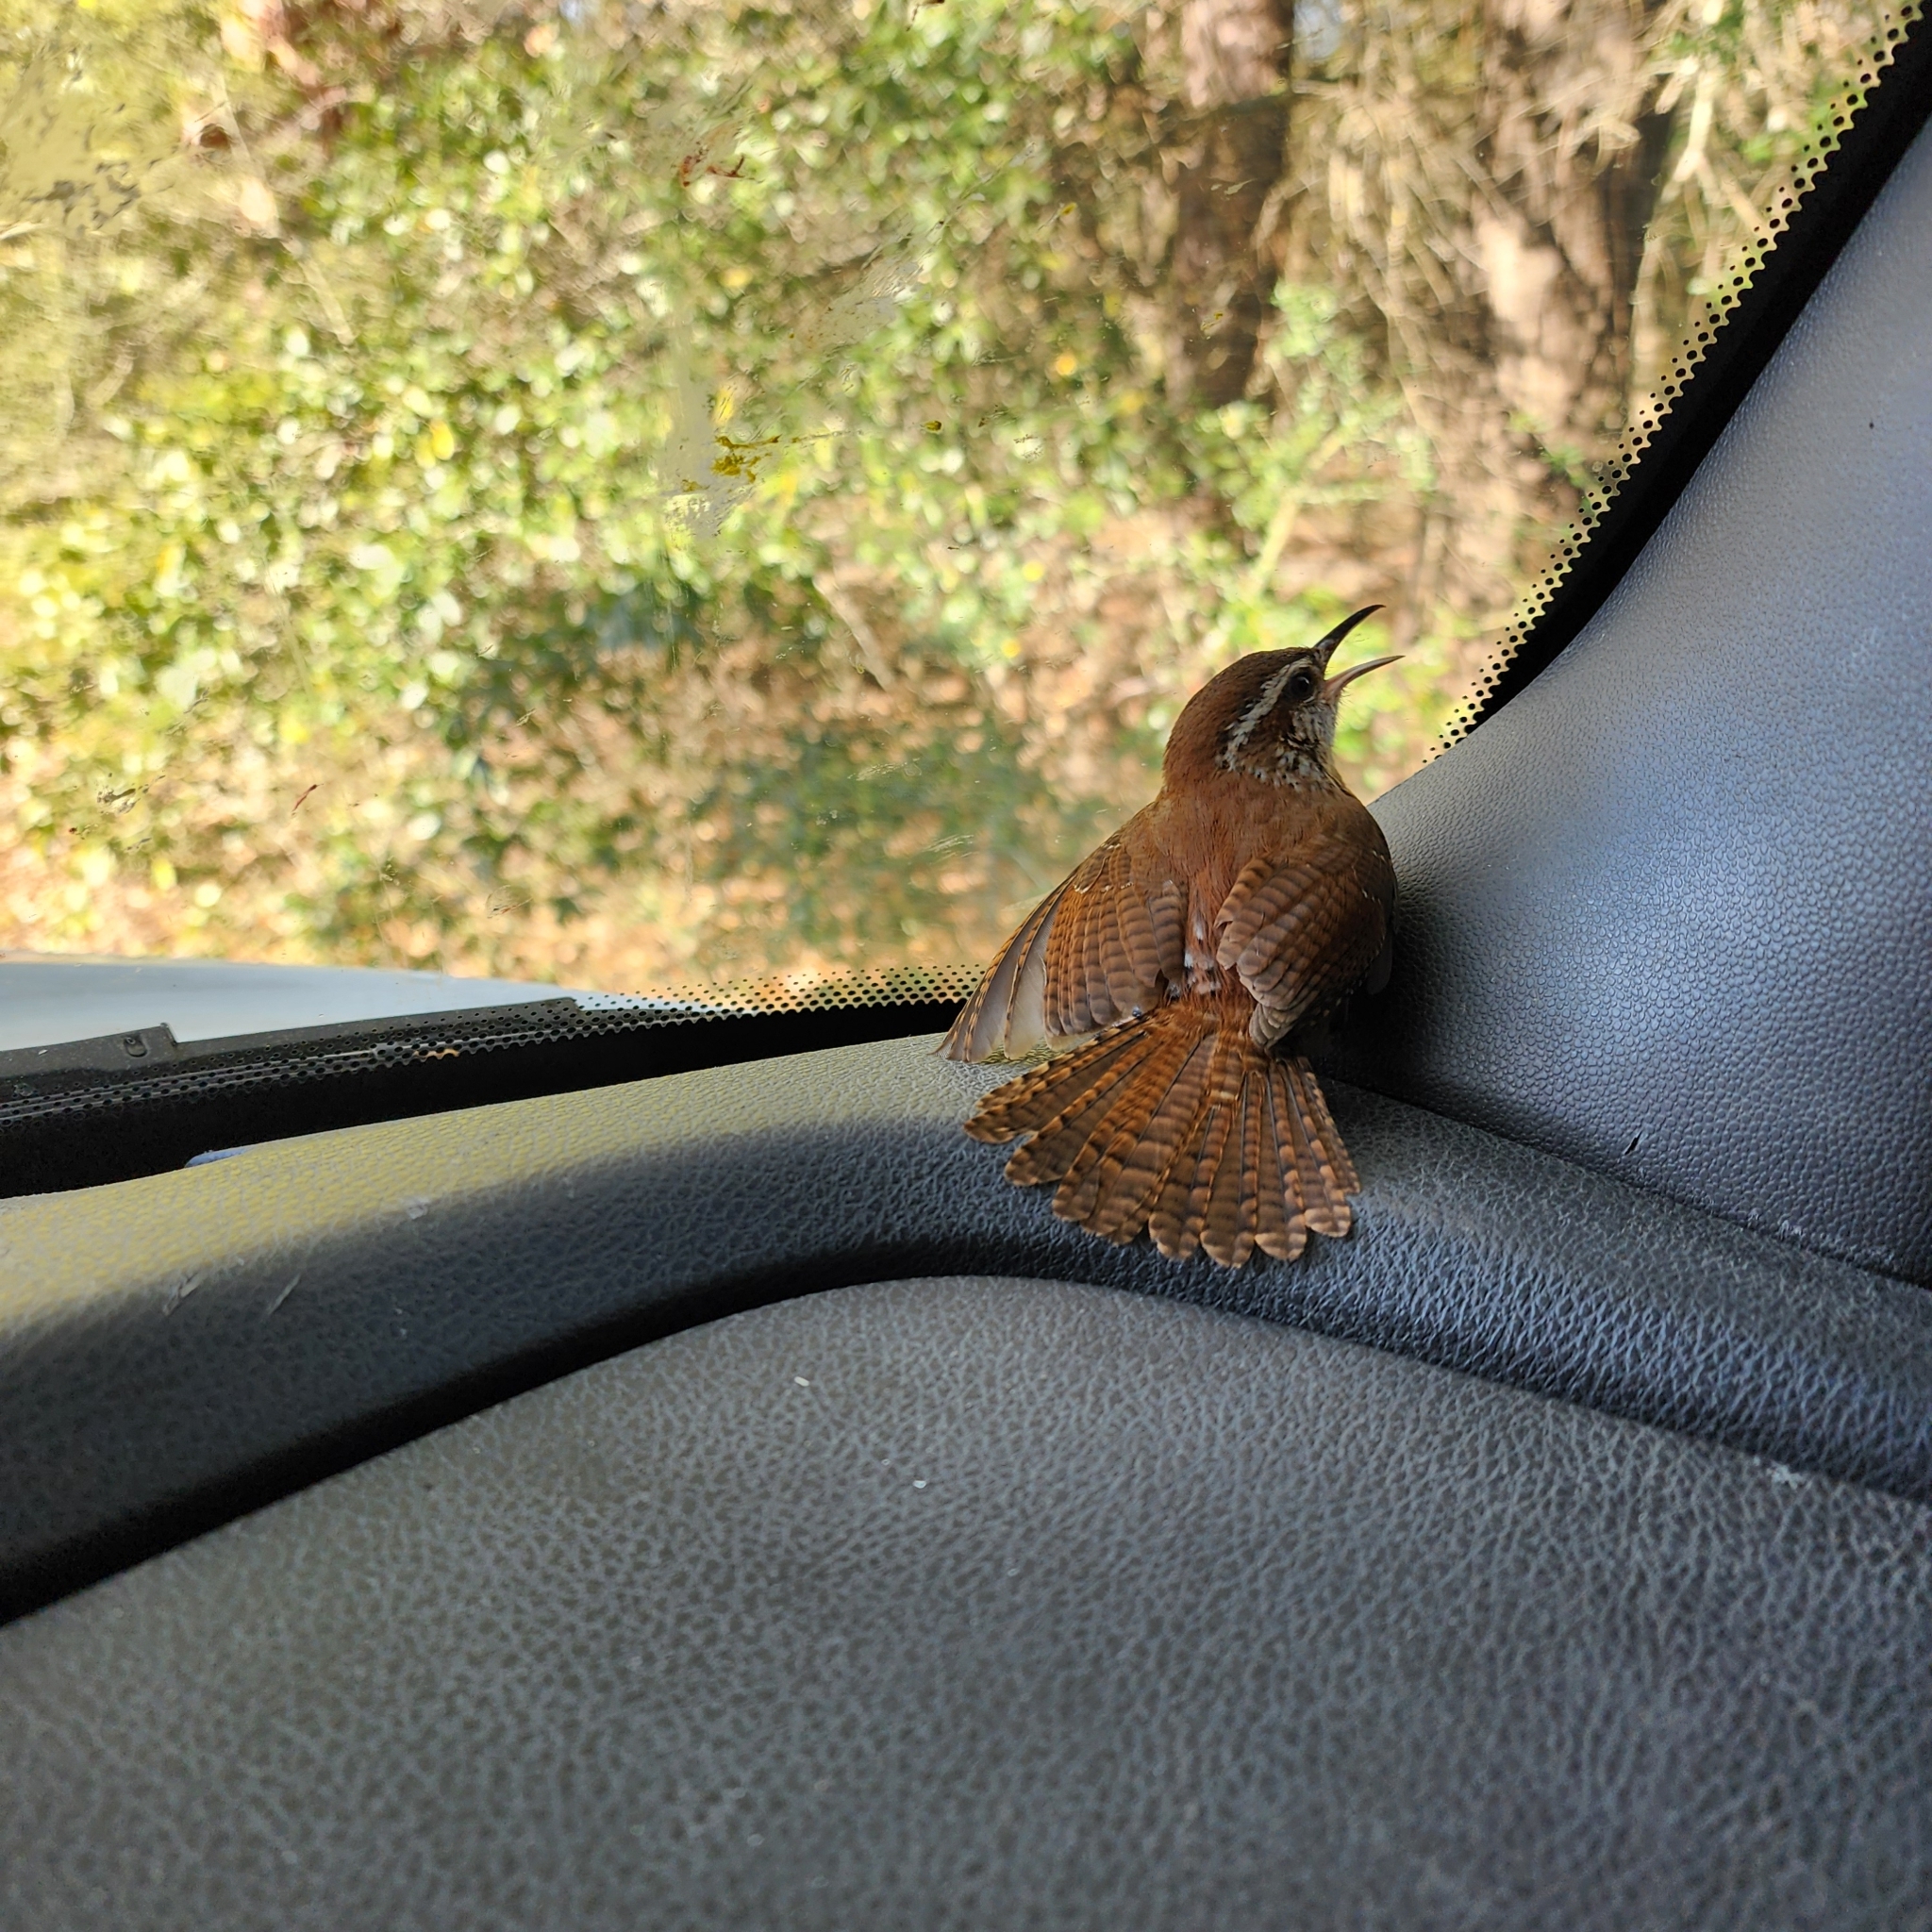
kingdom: Animalia
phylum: Chordata
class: Aves
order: Passeriformes
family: Troglodytidae
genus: Thryothorus
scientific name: Thryothorus ludovicianus
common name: Carolina wren
